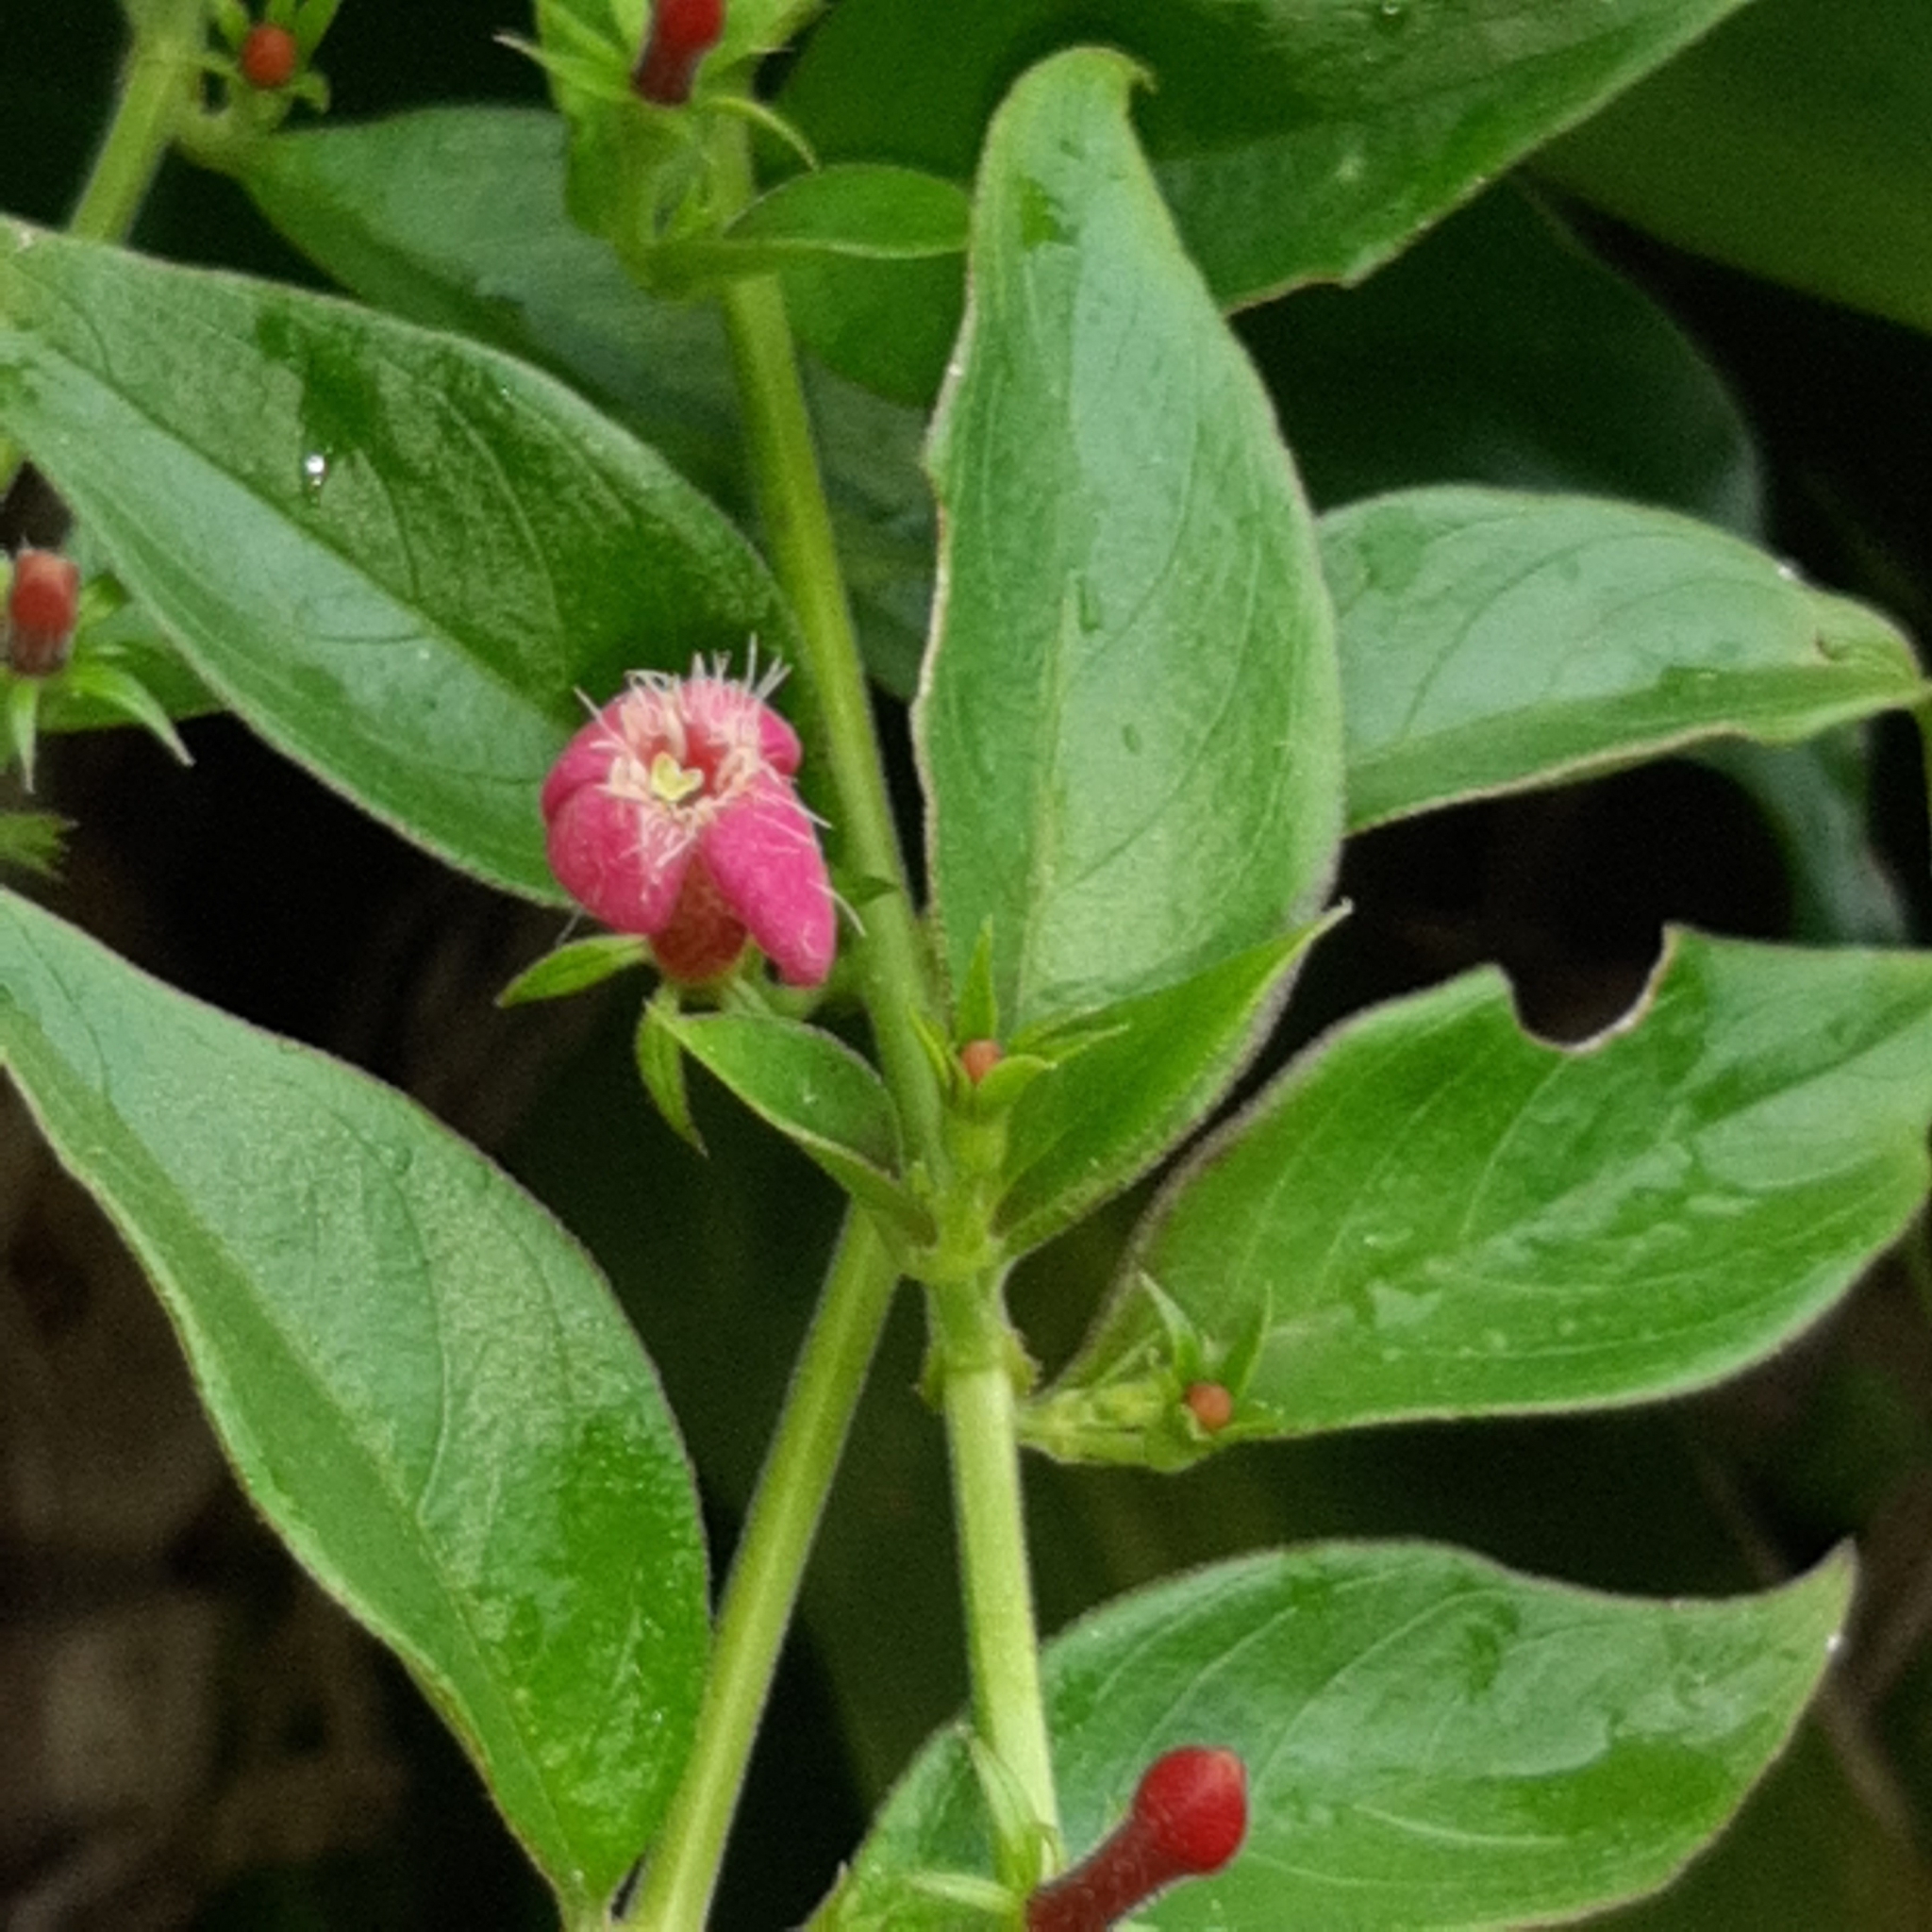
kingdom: Plantae
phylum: Tracheophyta
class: Magnoliopsida
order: Gentianales
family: Rubiaceae
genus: Manettia
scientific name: Manettia reclinata
